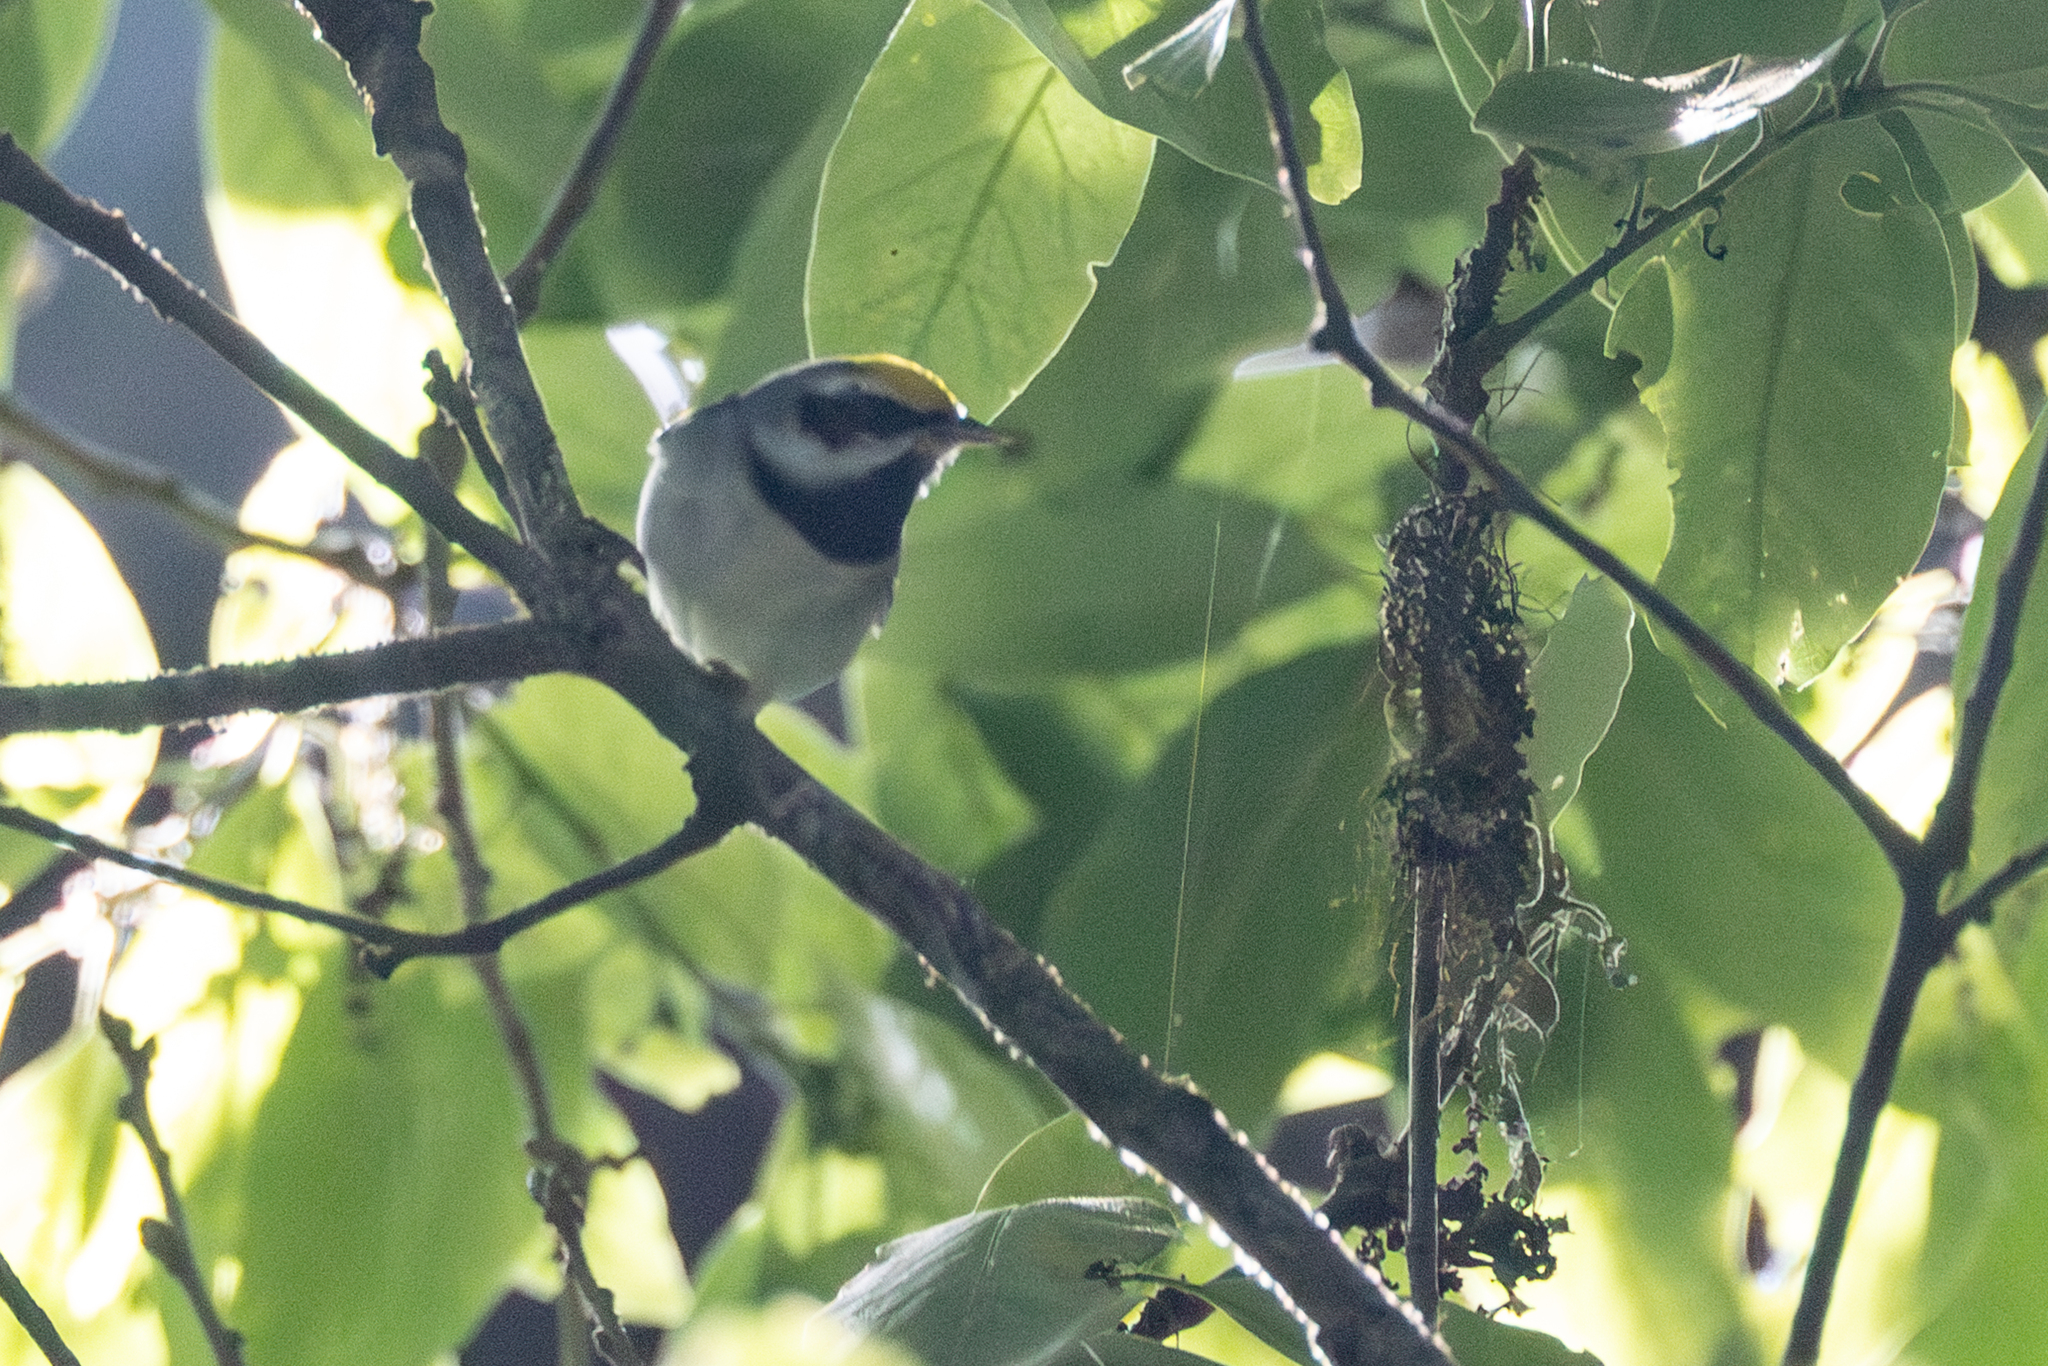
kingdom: Animalia
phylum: Chordata
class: Aves
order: Passeriformes
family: Parulidae
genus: Vermivora
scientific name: Vermivora chrysoptera
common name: Golden-winged warbler
